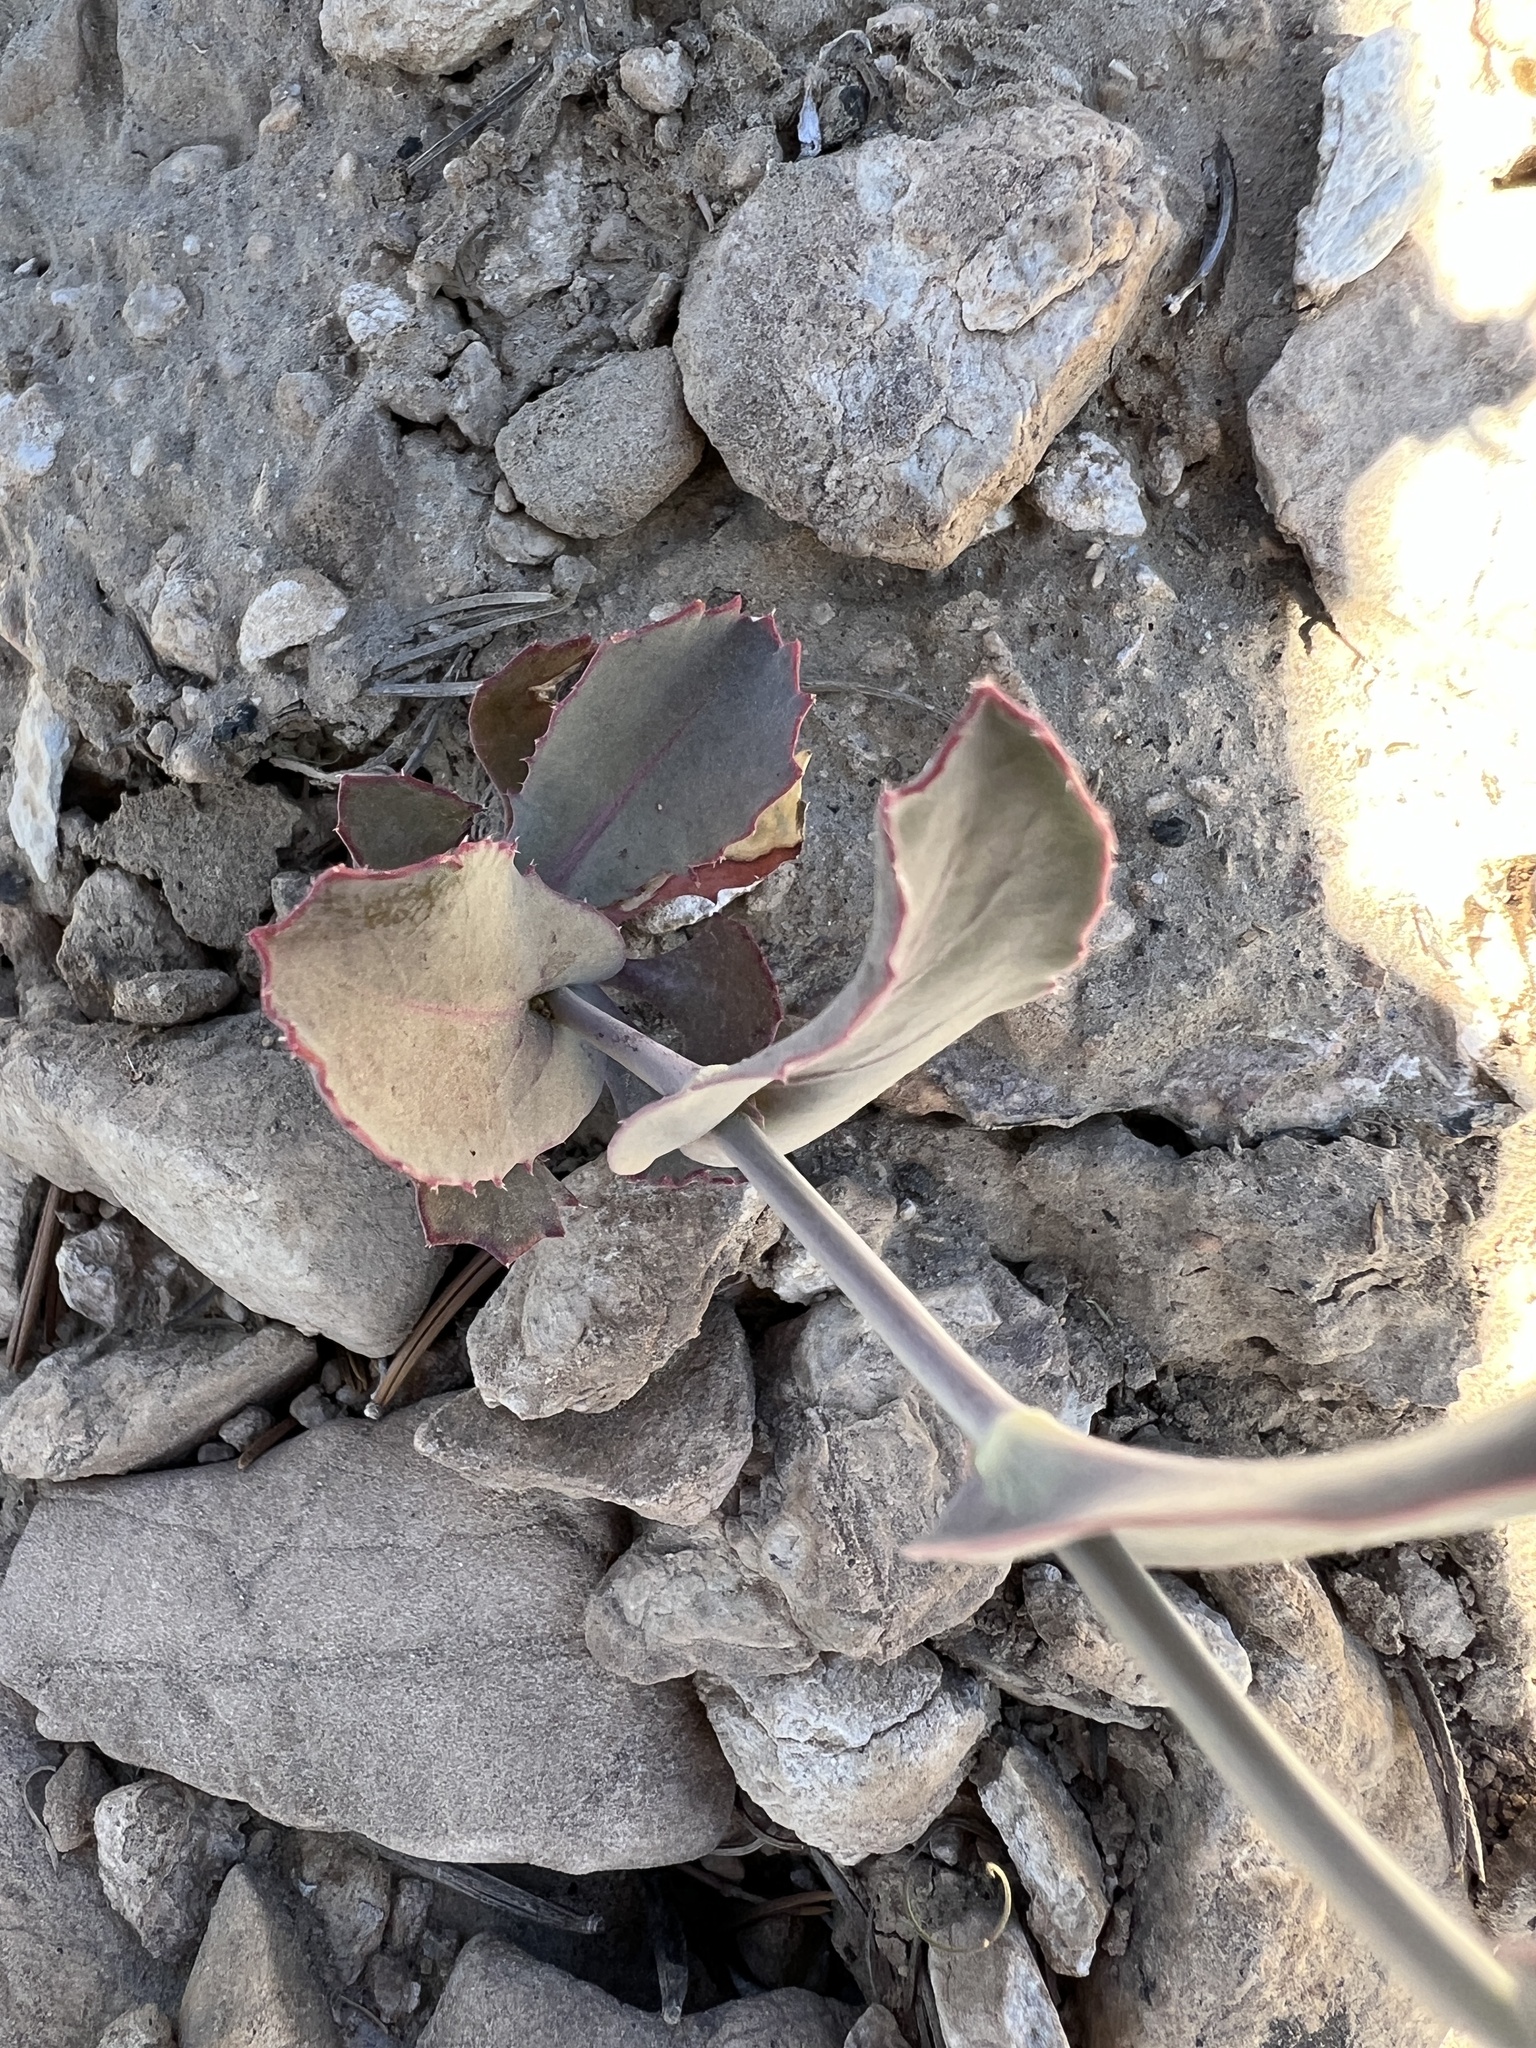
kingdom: Plantae
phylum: Tracheophyta
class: Magnoliopsida
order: Brassicales
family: Brassicaceae
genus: Streptanthus
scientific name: Streptanthus cordatus
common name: Heart-leaf jewel-flower
